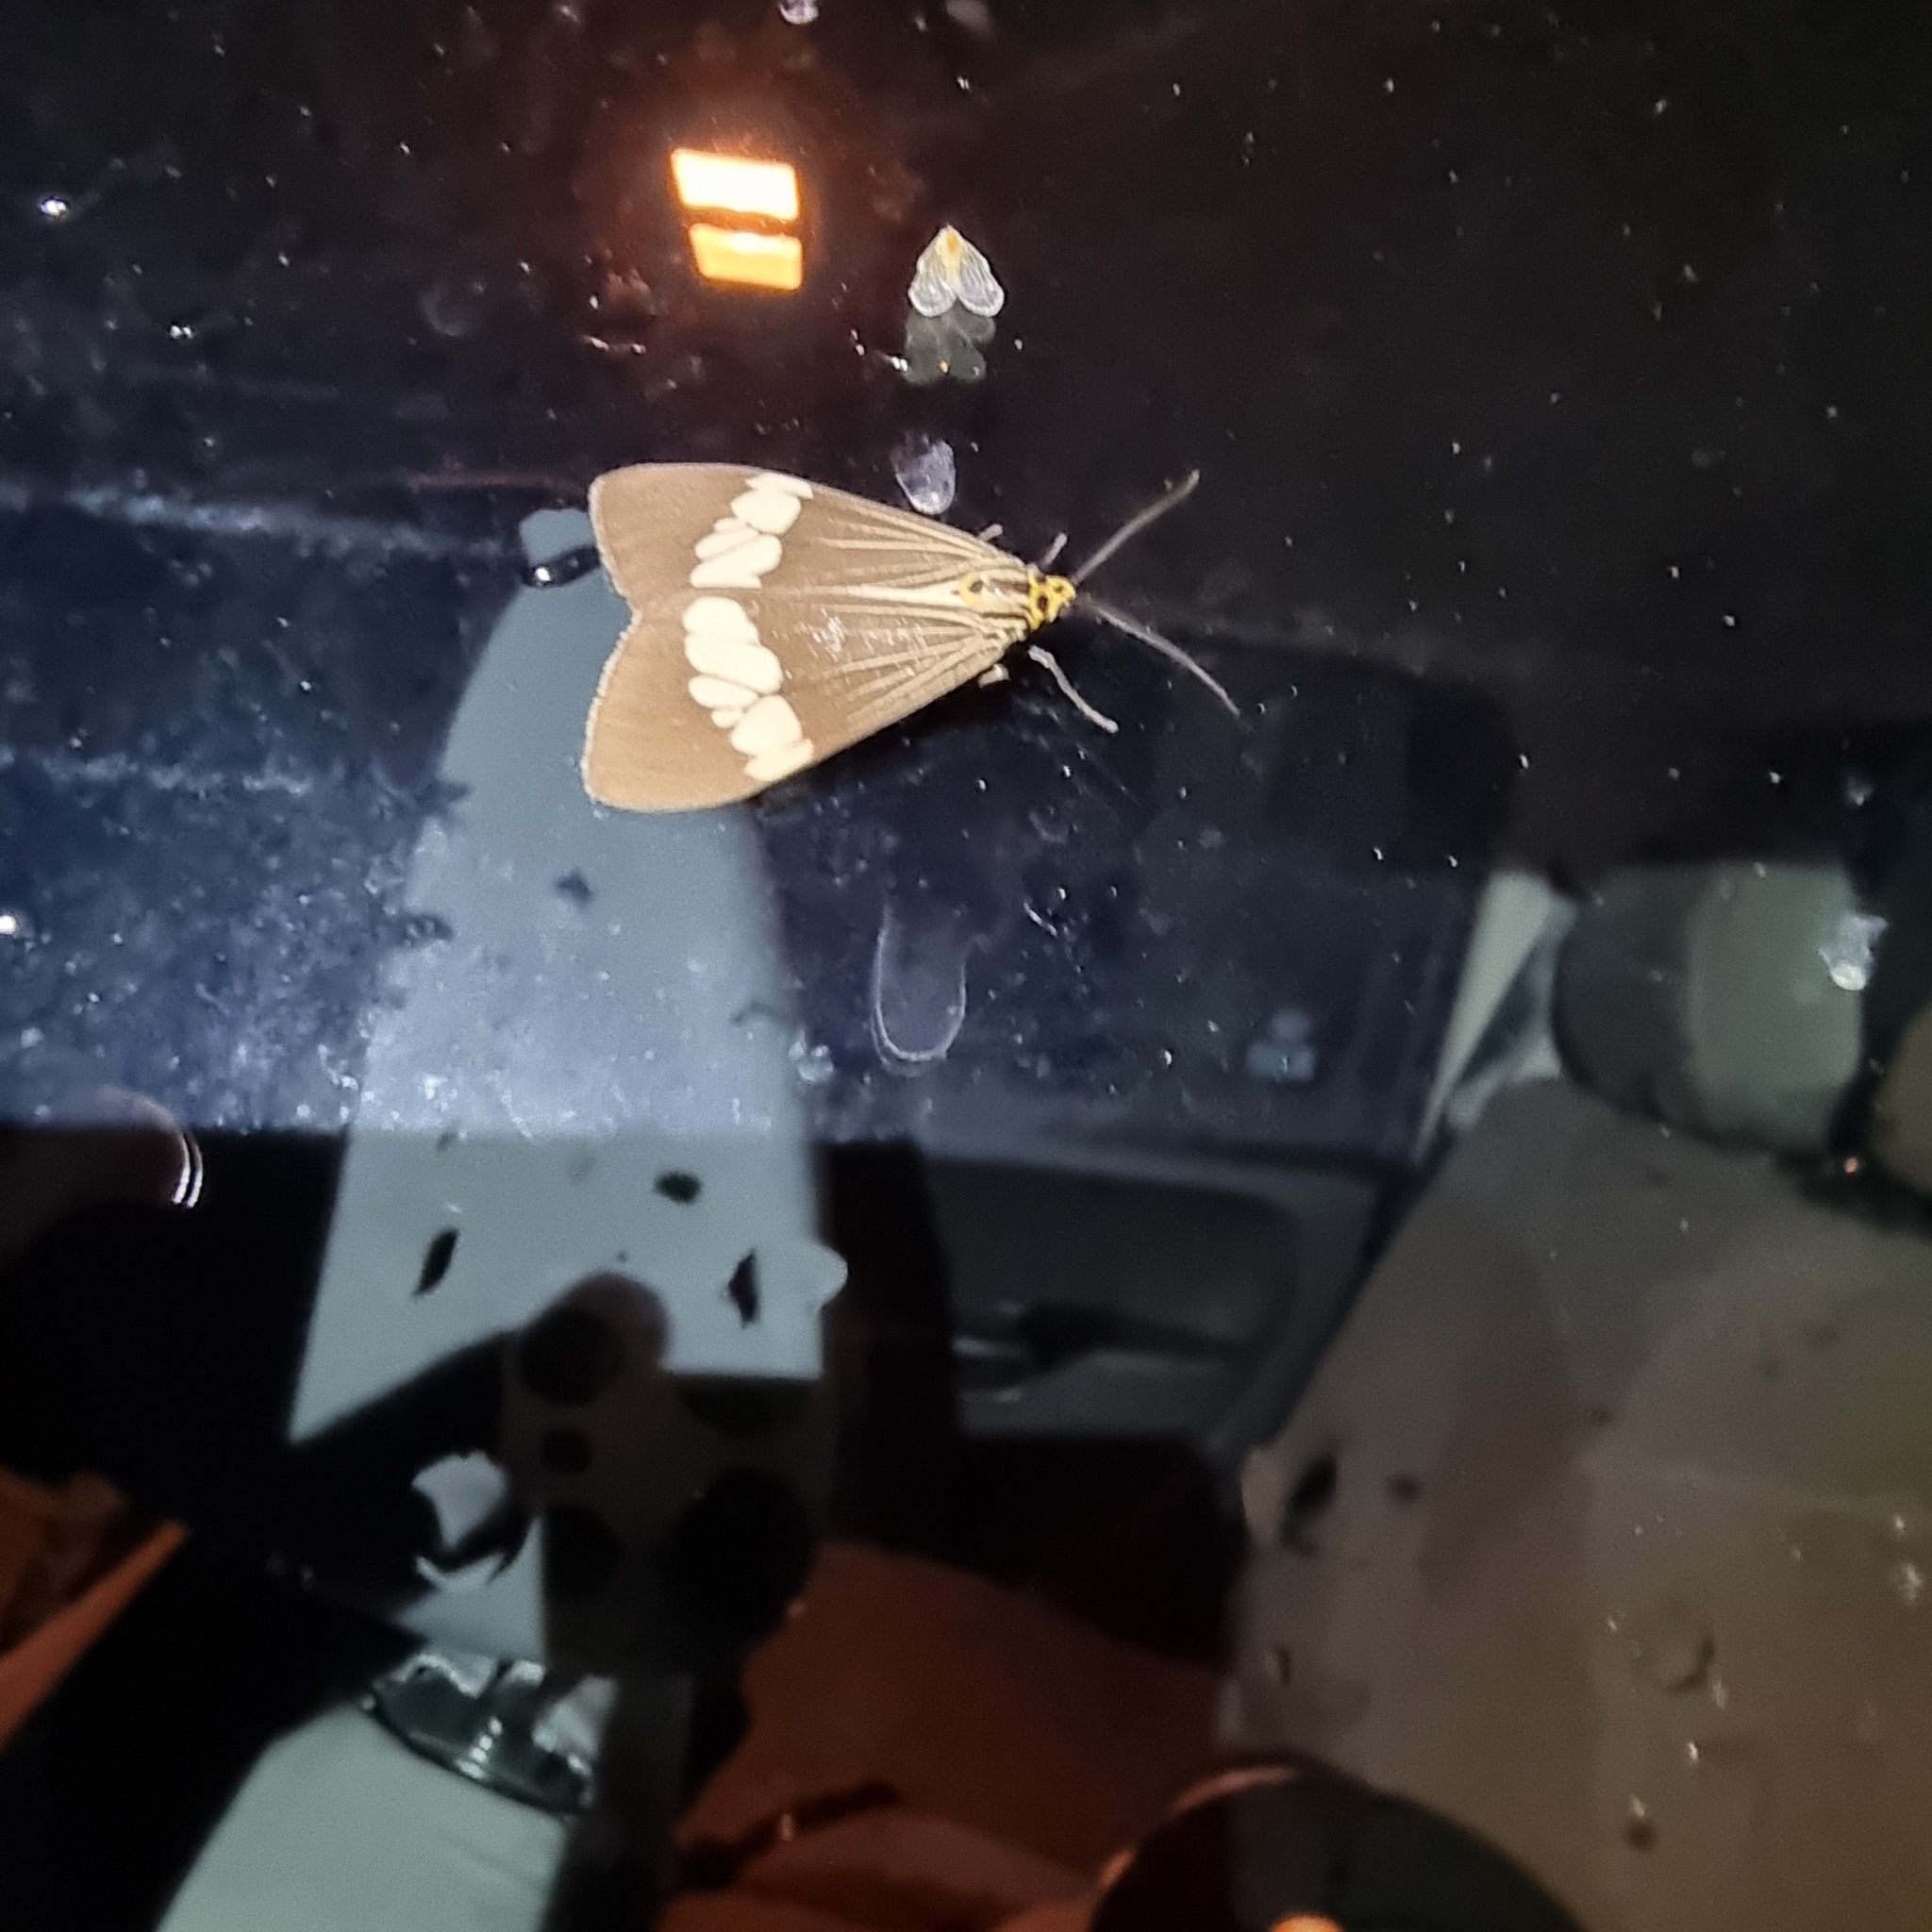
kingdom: Animalia
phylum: Arthropoda
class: Insecta
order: Lepidoptera
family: Erebidae
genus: Nyctemera
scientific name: Nyctemera baulus
